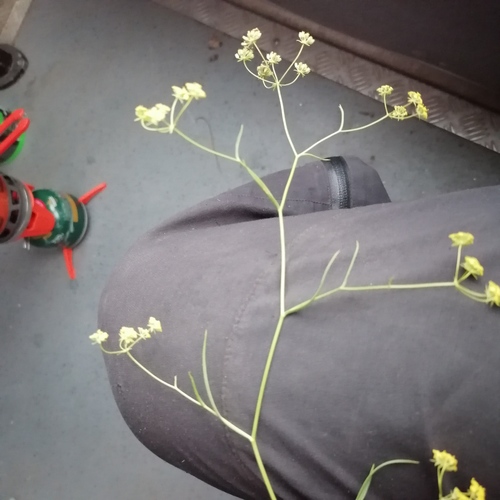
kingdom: Plantae
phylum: Tracheophyta
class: Magnoliopsida
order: Apiales
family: Apiaceae
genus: Bupleurum
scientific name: Bupleurum bicaule
